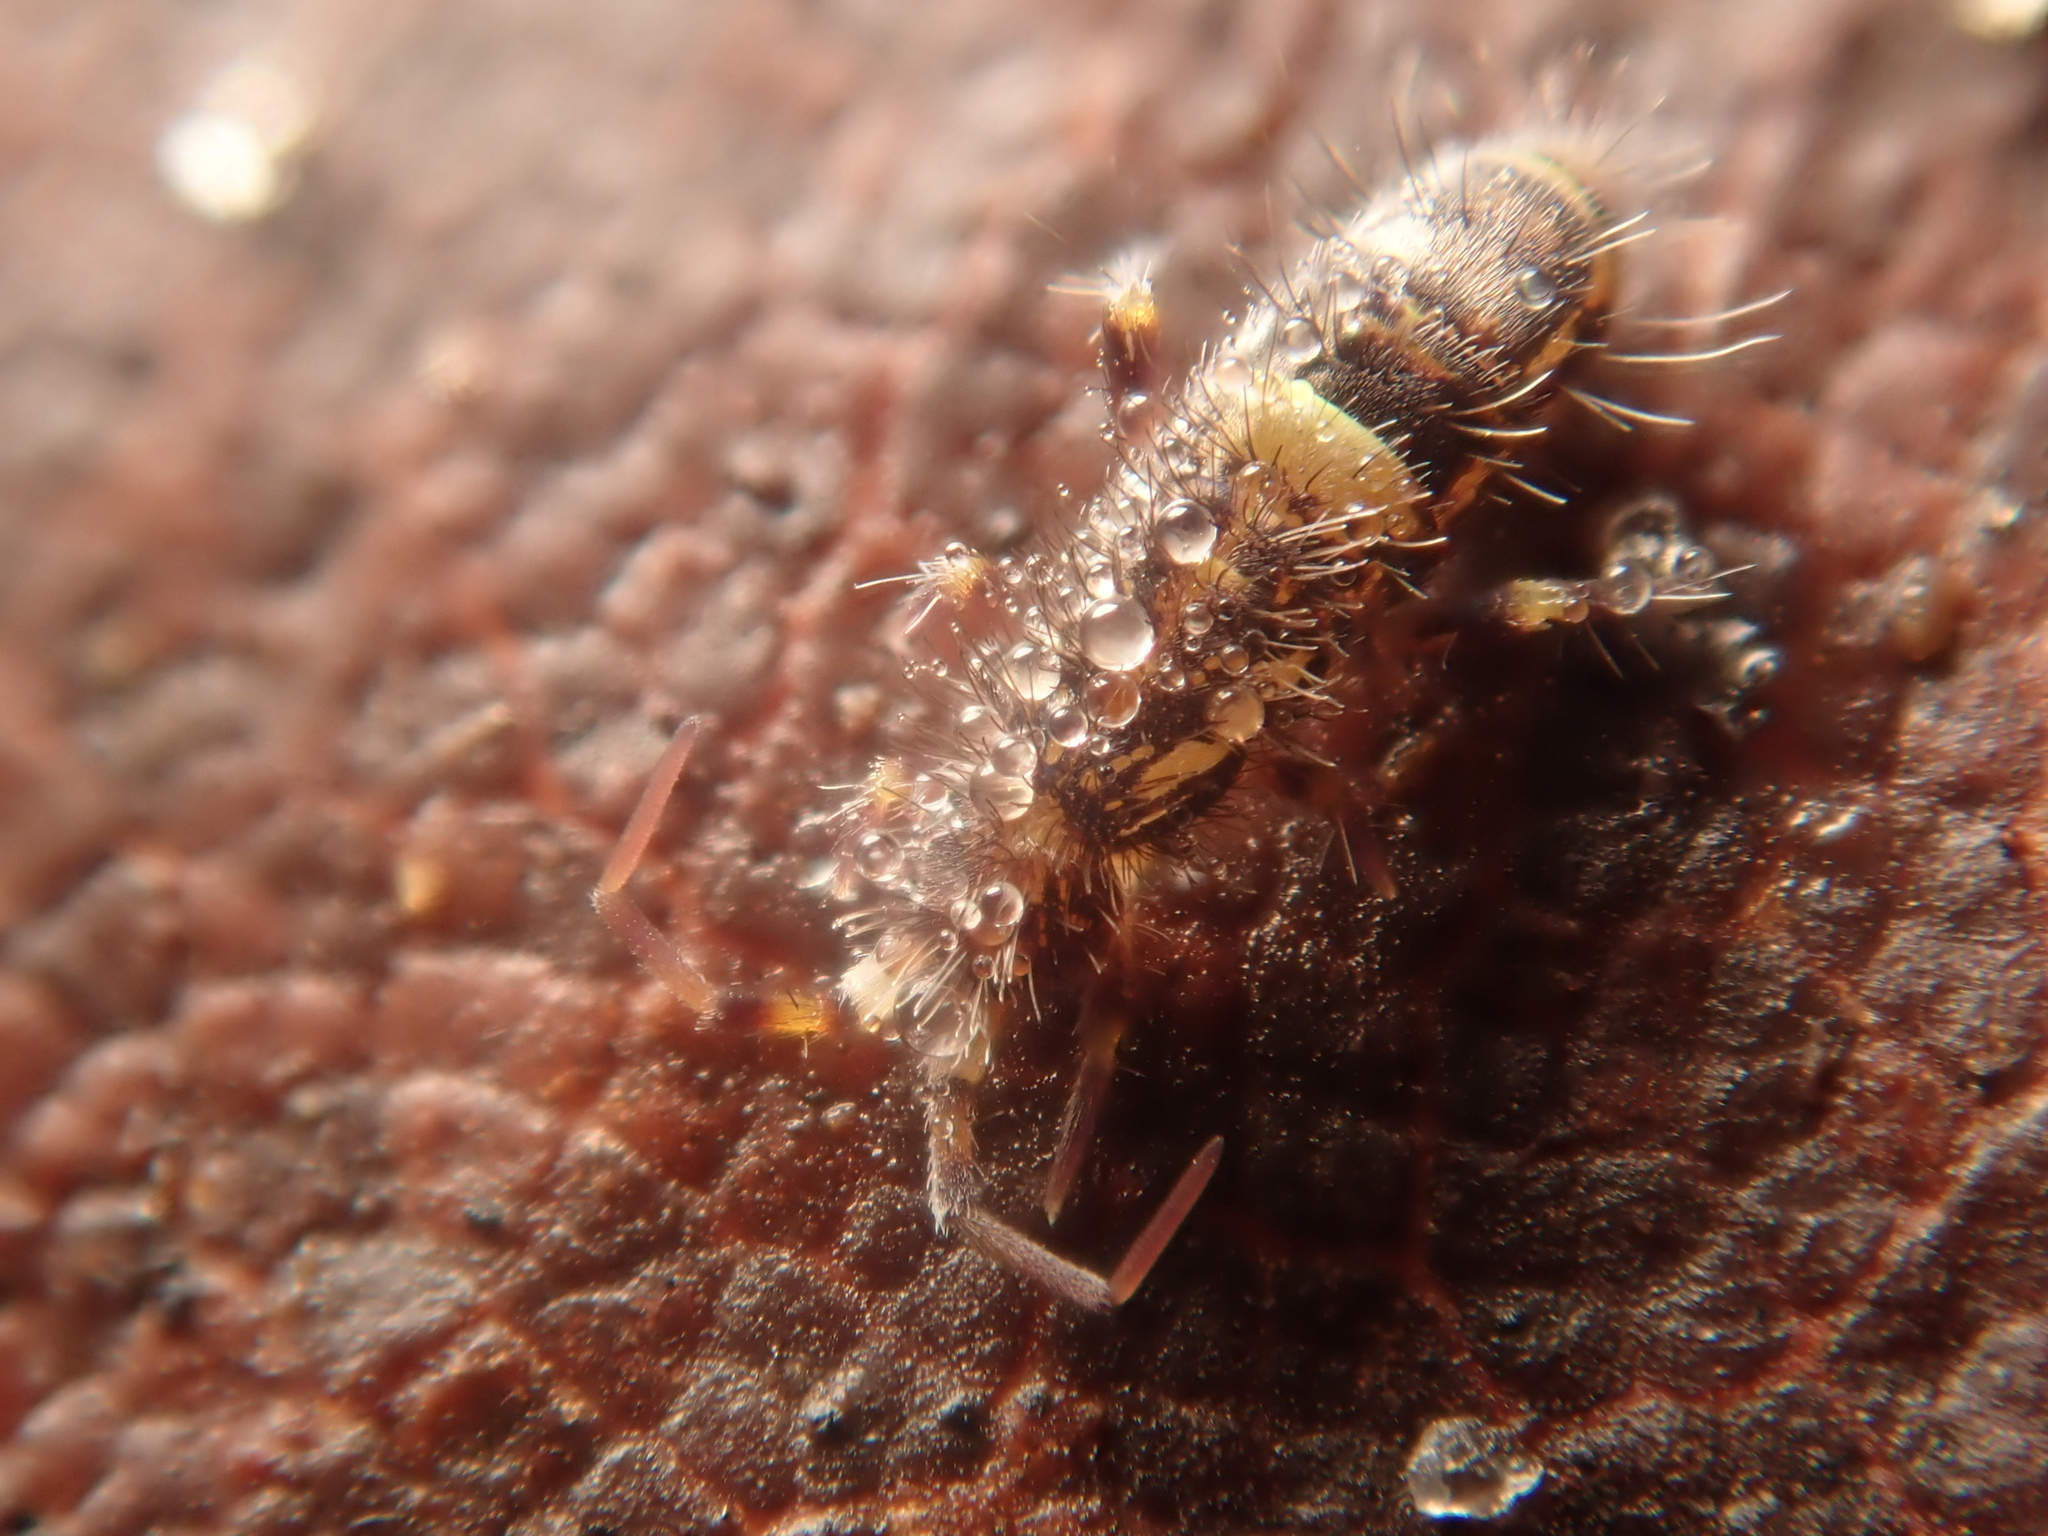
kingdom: Animalia
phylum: Arthropoda
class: Collembola
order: Entomobryomorpha
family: Orchesellidae
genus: Orchesella
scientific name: Orchesella cincta
